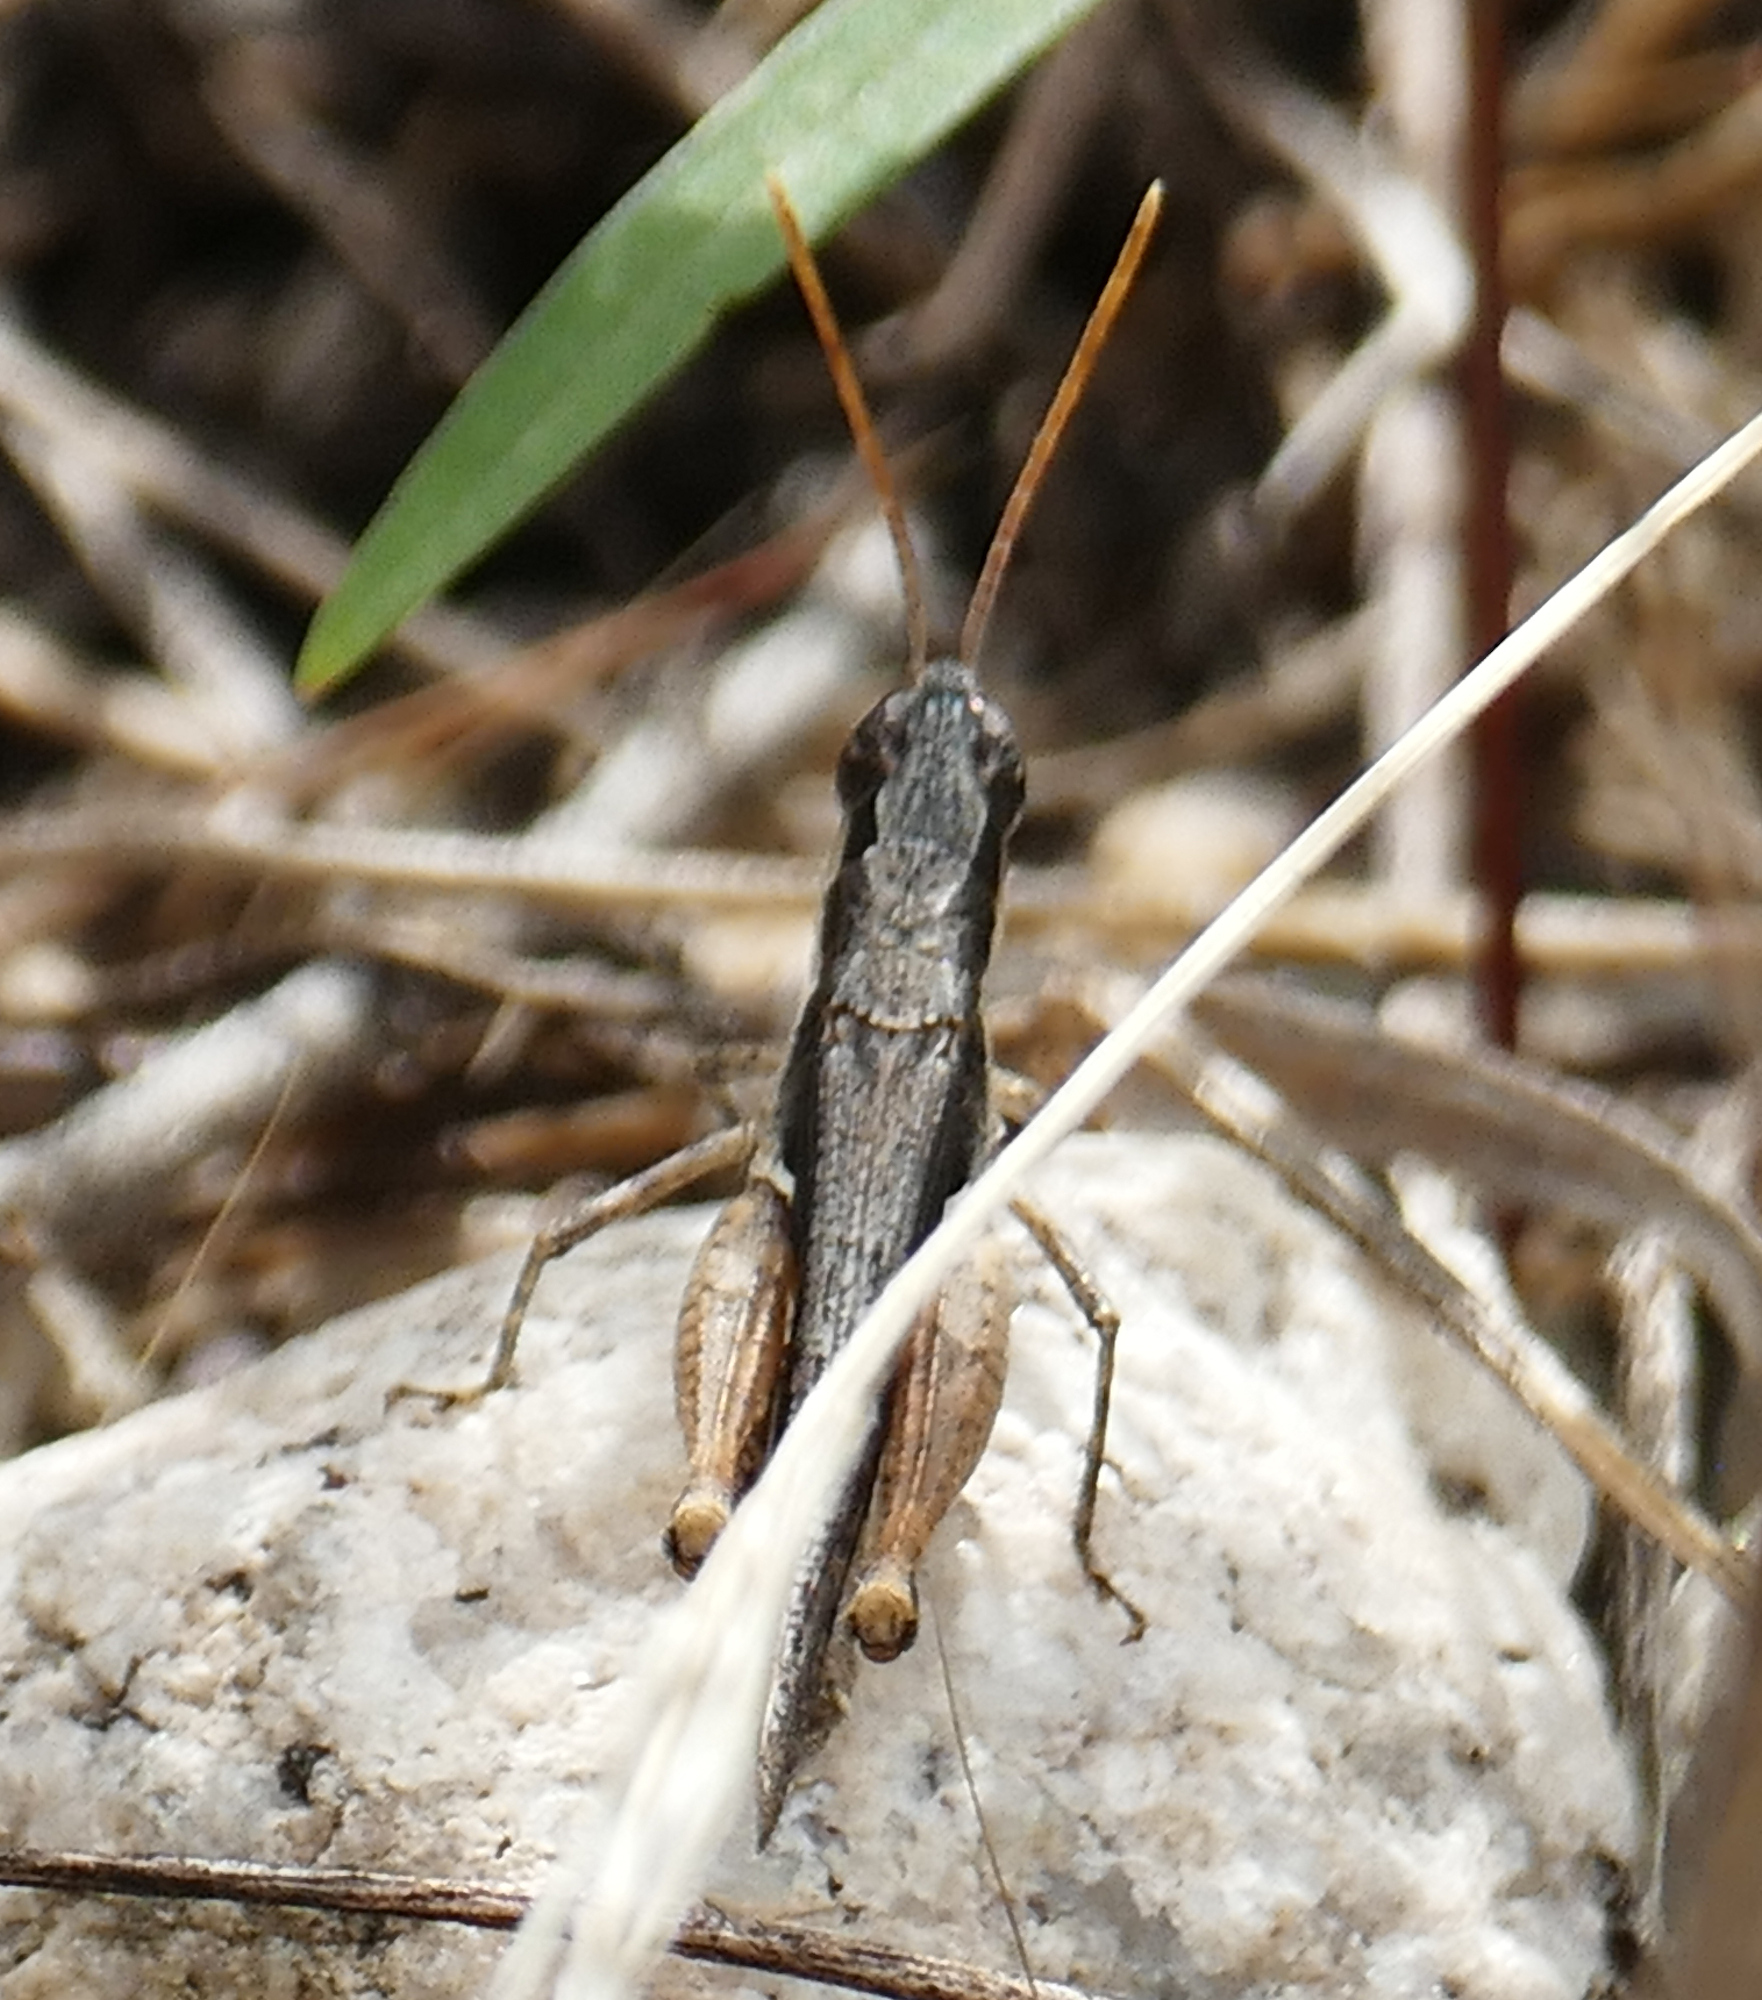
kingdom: Animalia
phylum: Arthropoda
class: Insecta
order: Orthoptera
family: Acrididae
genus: Horesidotes
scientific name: Horesidotes cinereus
